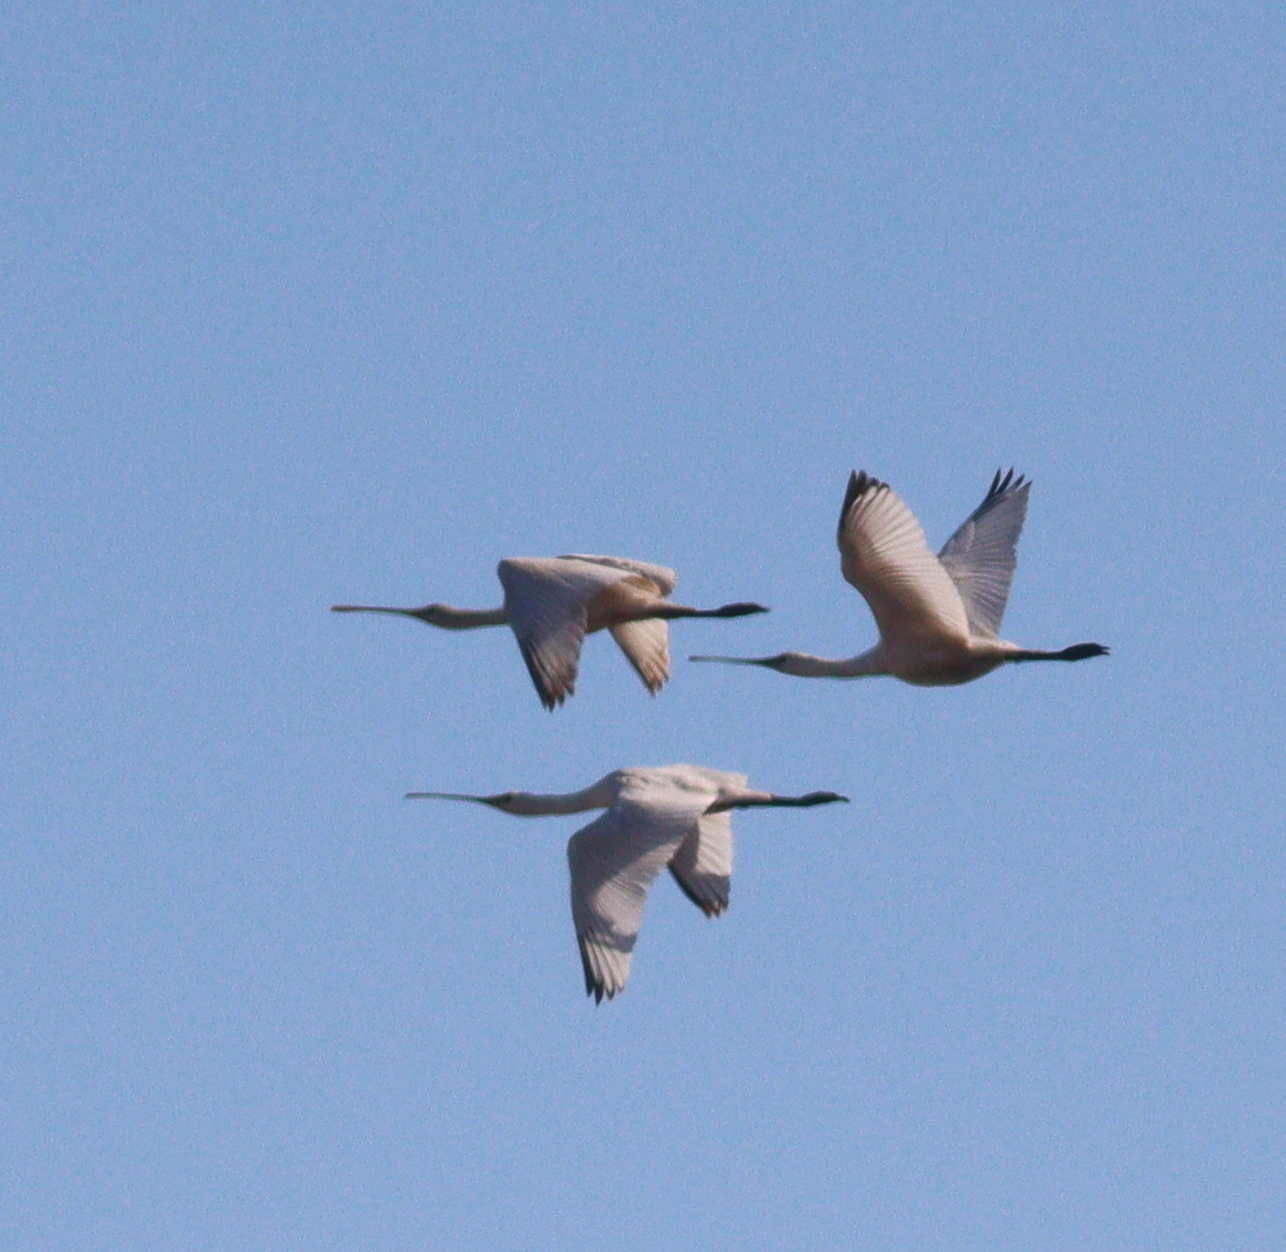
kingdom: Animalia
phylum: Chordata
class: Aves
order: Pelecaniformes
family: Threskiornithidae
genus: Platalea
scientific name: Platalea leucorodia
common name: Eurasian spoonbill
